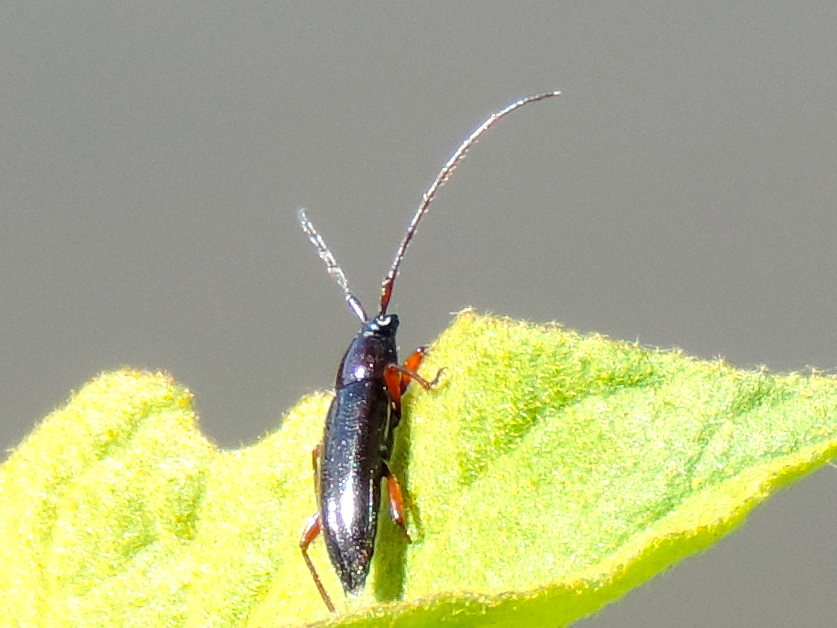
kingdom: Animalia
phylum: Arthropoda
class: Insecta
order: Coleoptera
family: Cerambycidae
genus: Stenosphenus
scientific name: Stenosphenus
